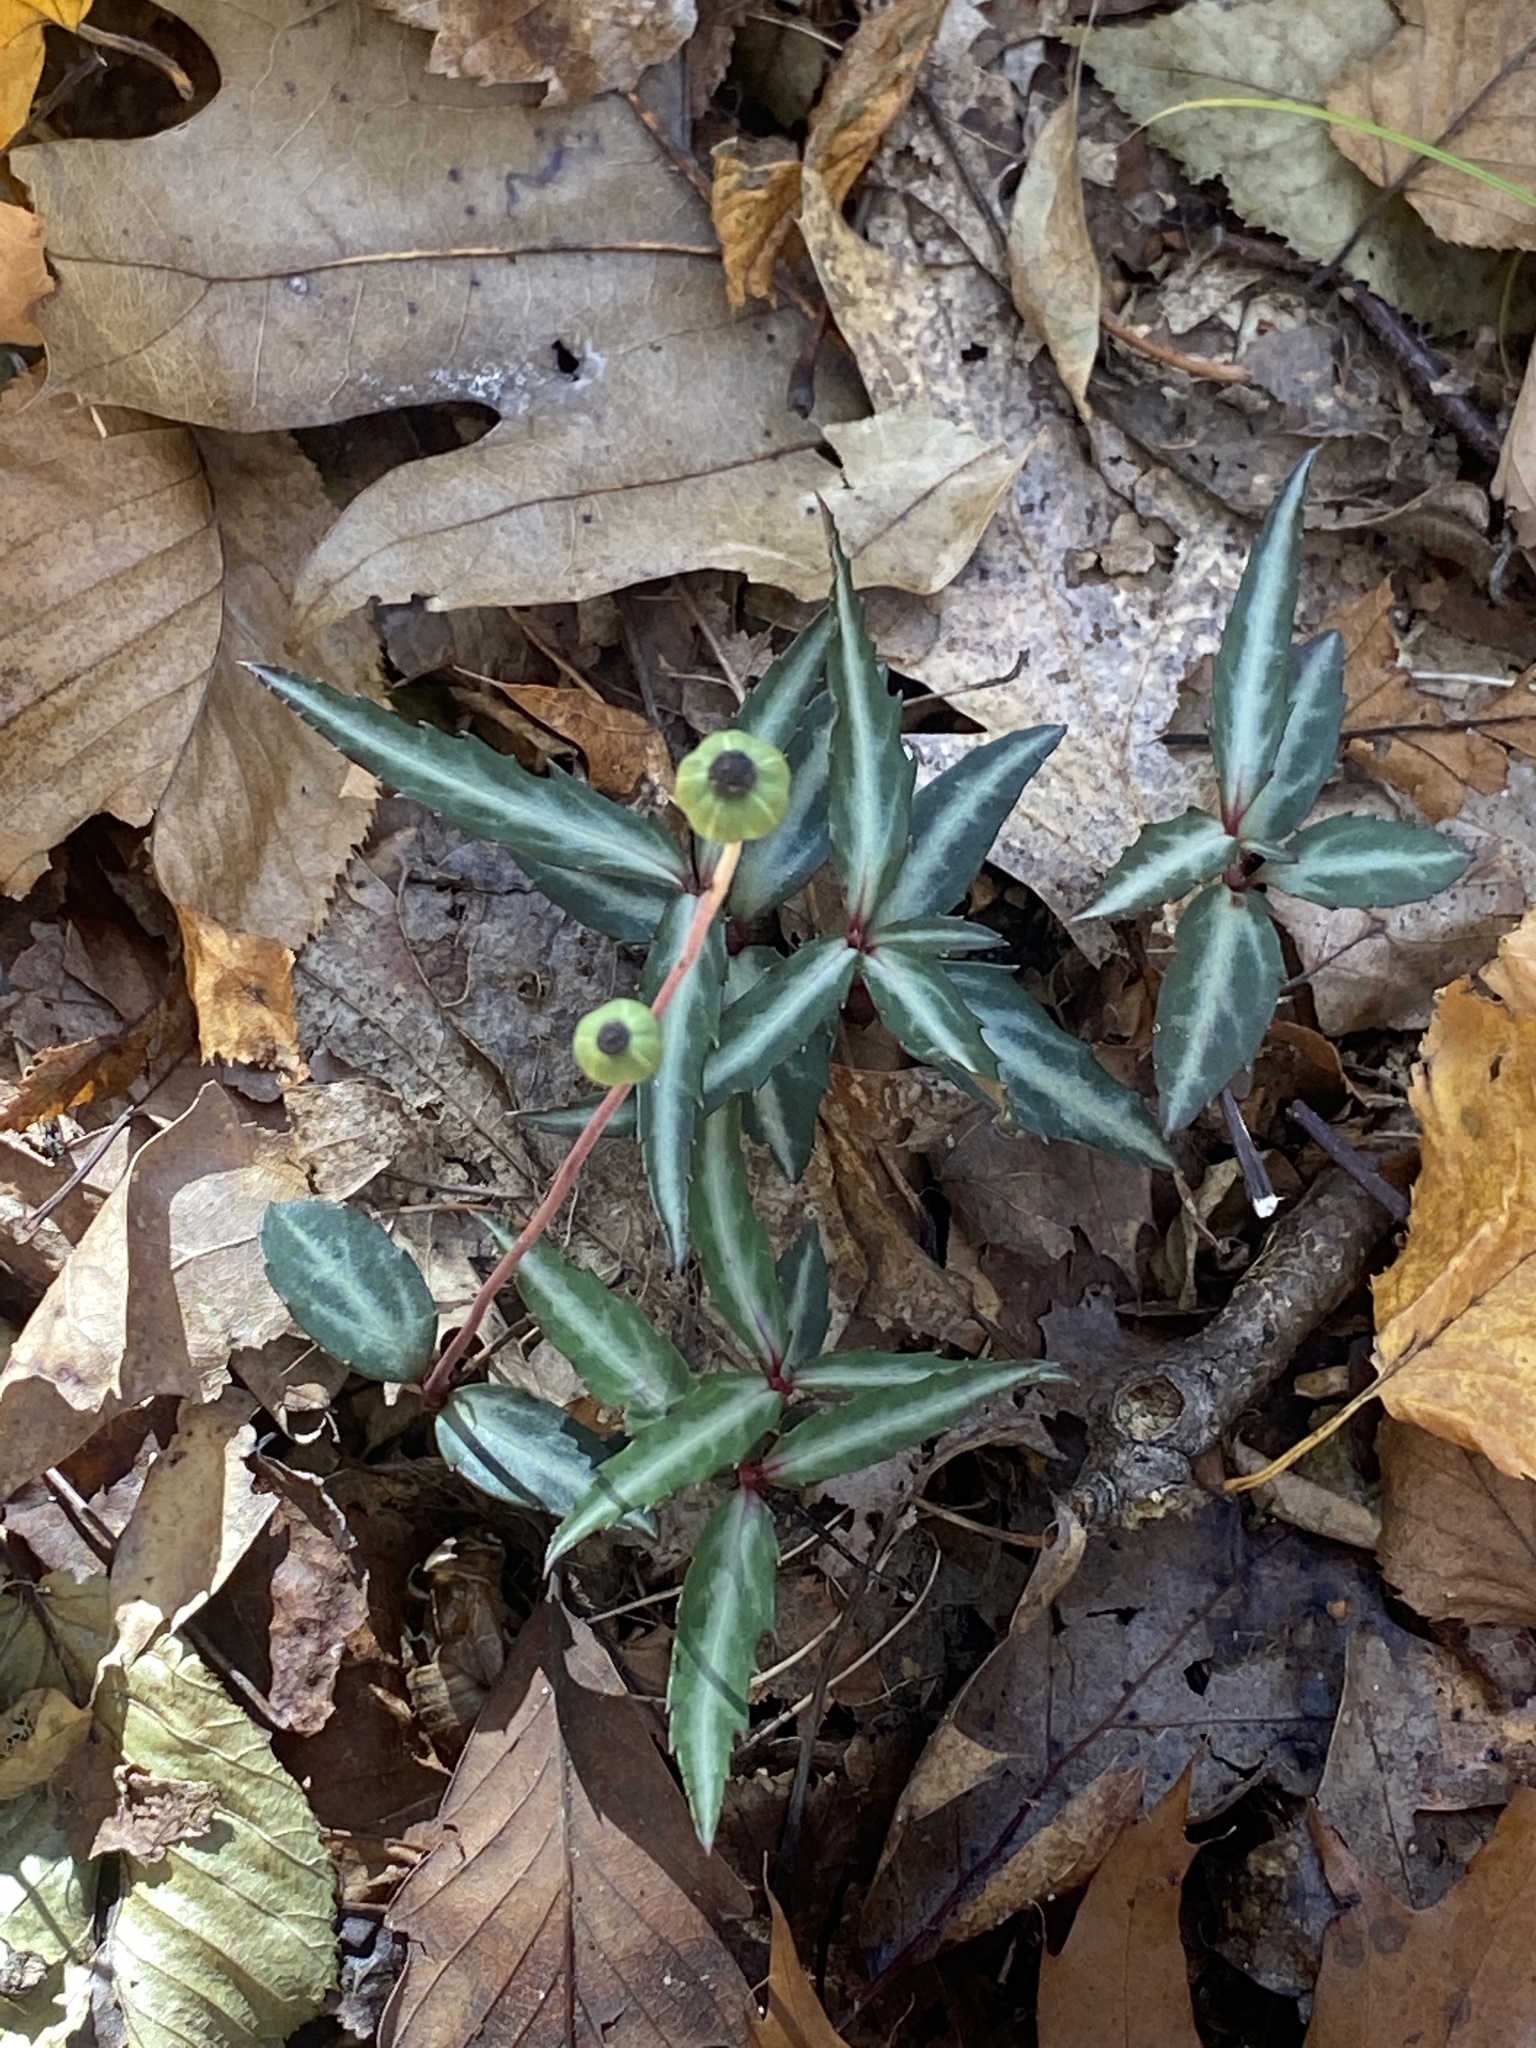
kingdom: Plantae
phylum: Tracheophyta
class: Magnoliopsida
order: Ericales
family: Ericaceae
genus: Chimaphila
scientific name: Chimaphila maculata
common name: Spotted pipsissewa
